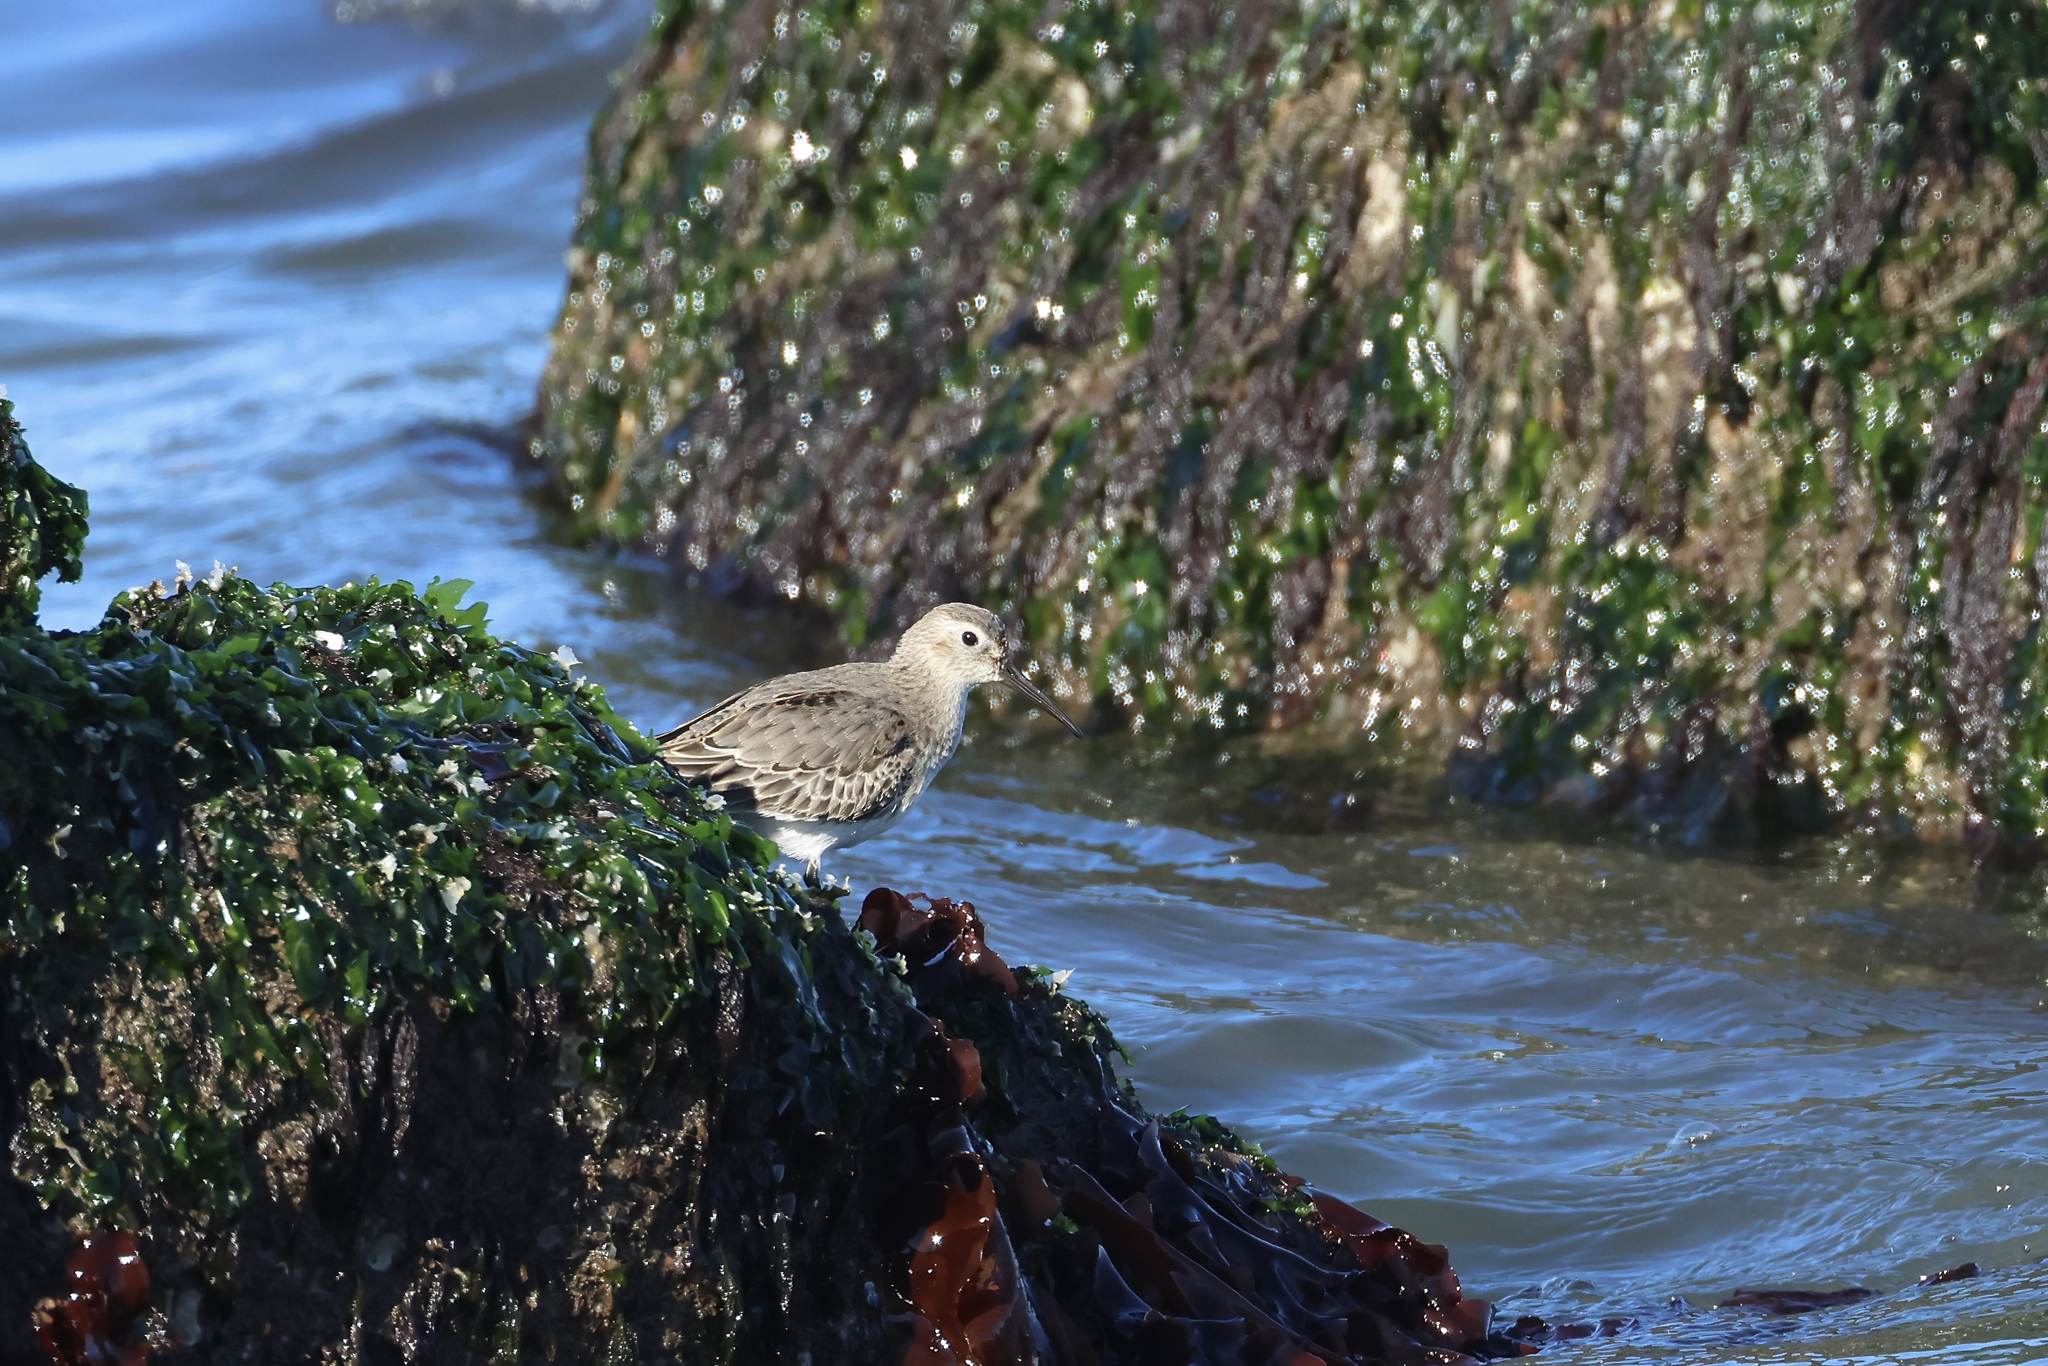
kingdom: Animalia
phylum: Chordata
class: Aves
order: Charadriiformes
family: Scolopacidae
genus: Calidris
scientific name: Calidris alpina
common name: Dunlin
